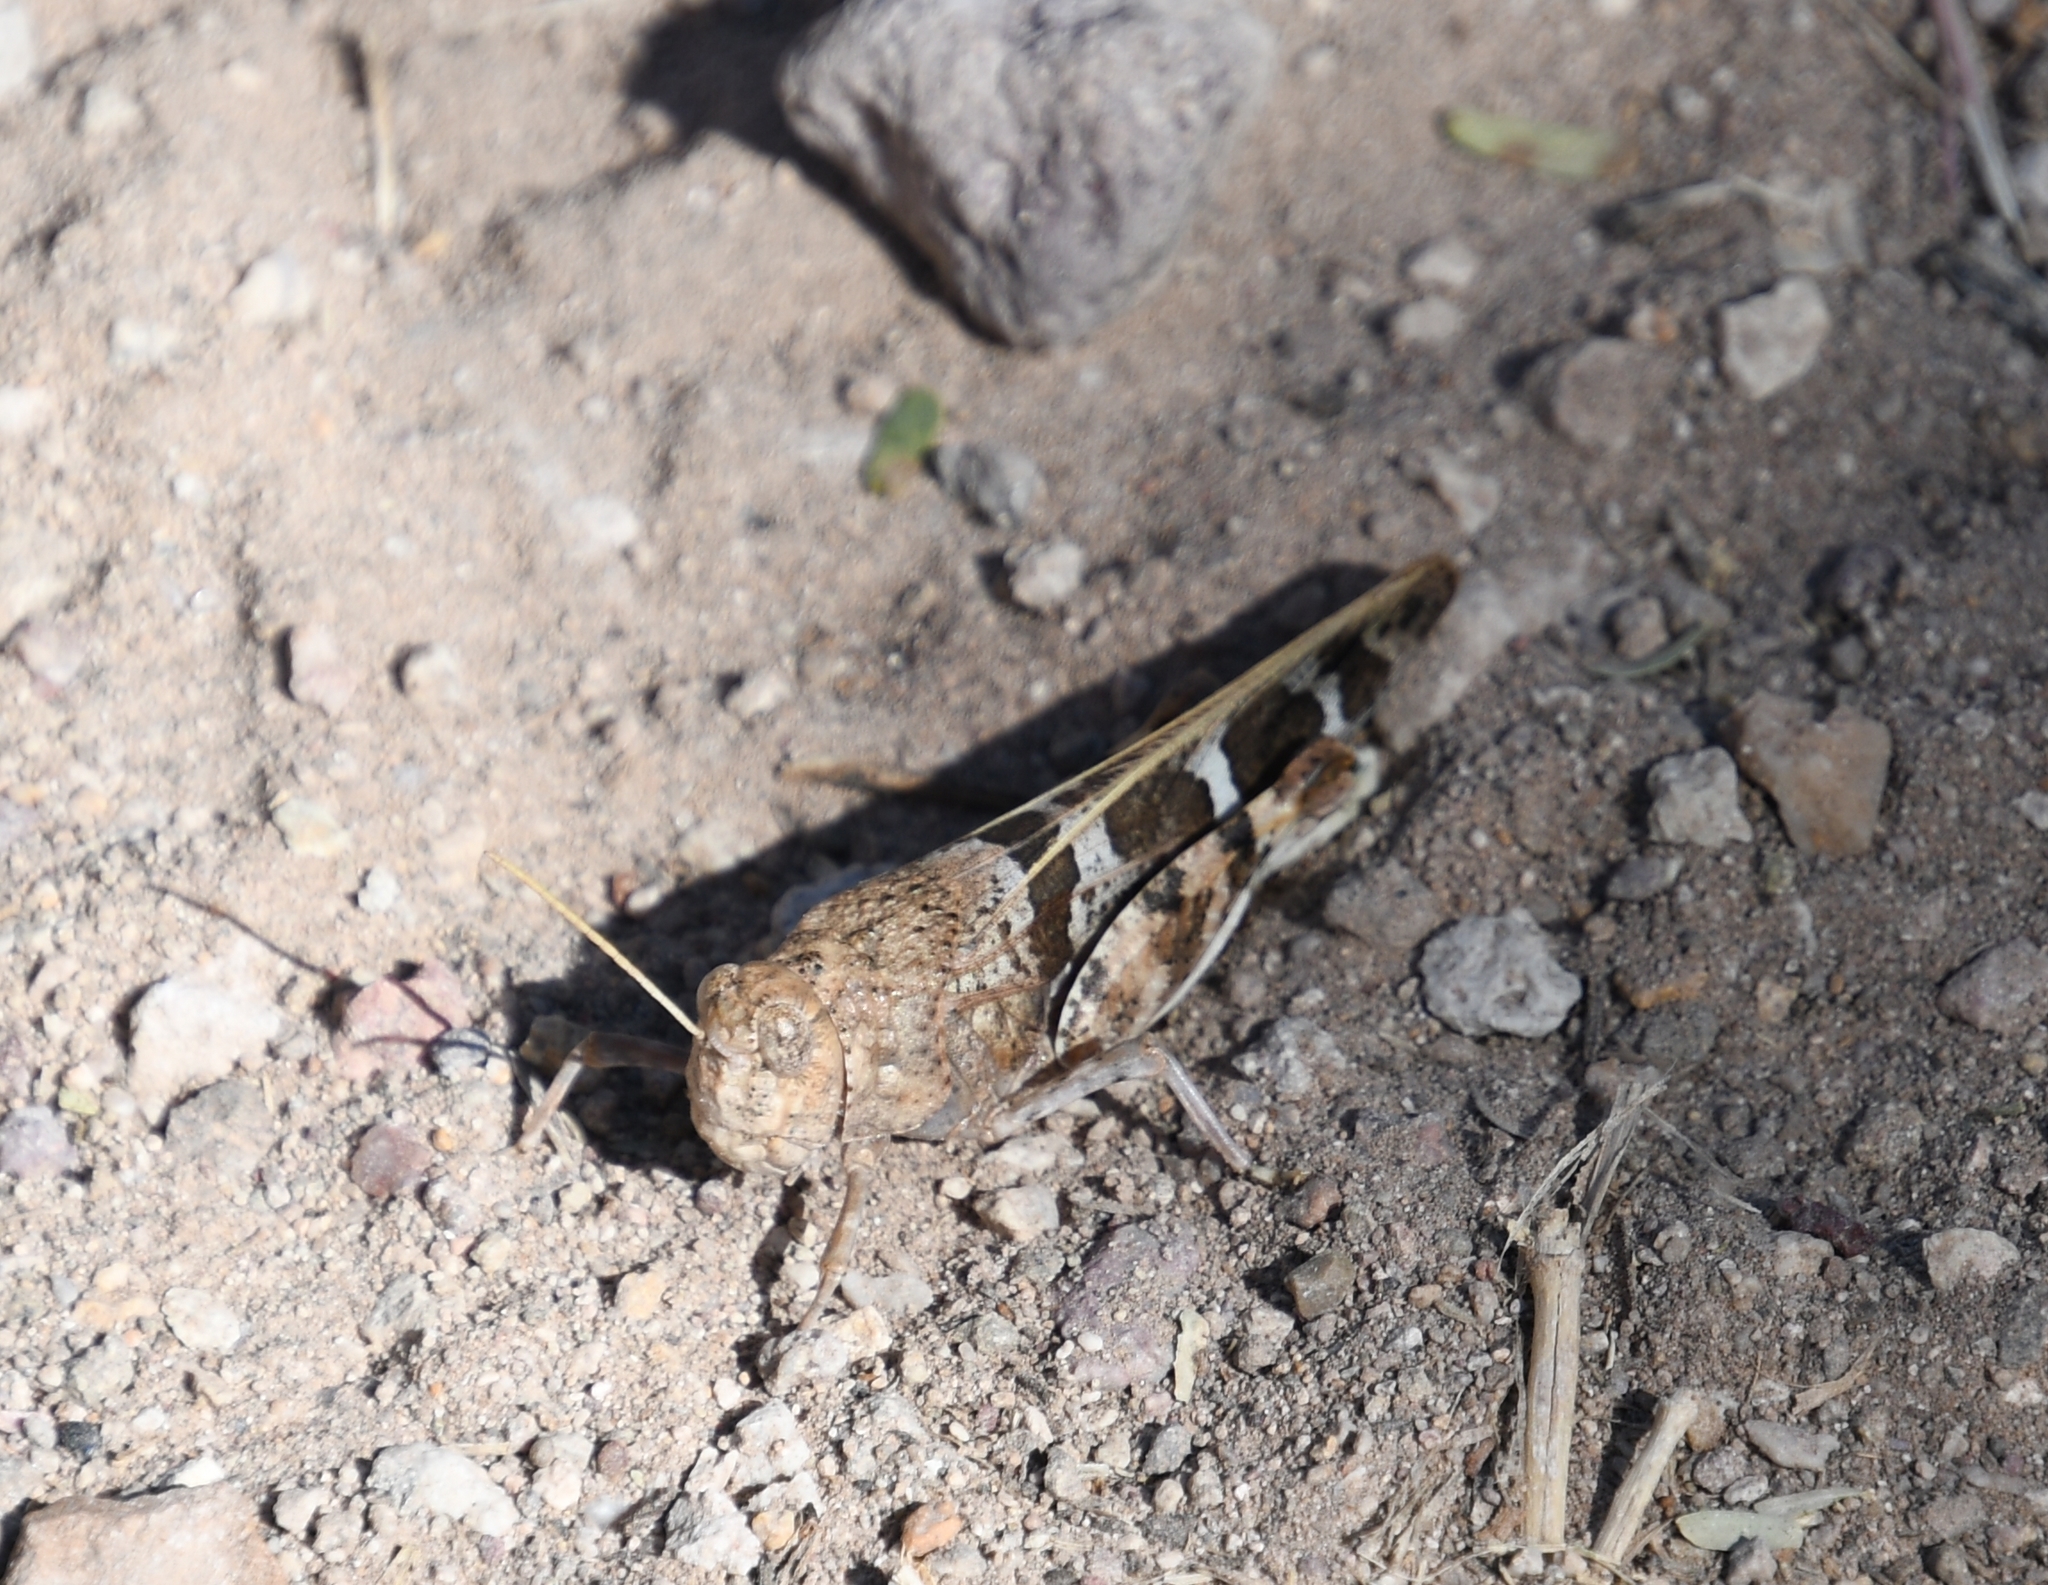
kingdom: Animalia
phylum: Arthropoda
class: Insecta
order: Orthoptera
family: Acrididae
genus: Leprus
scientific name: Leprus intermedius
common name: Saussure's blue-winged grasshopper
